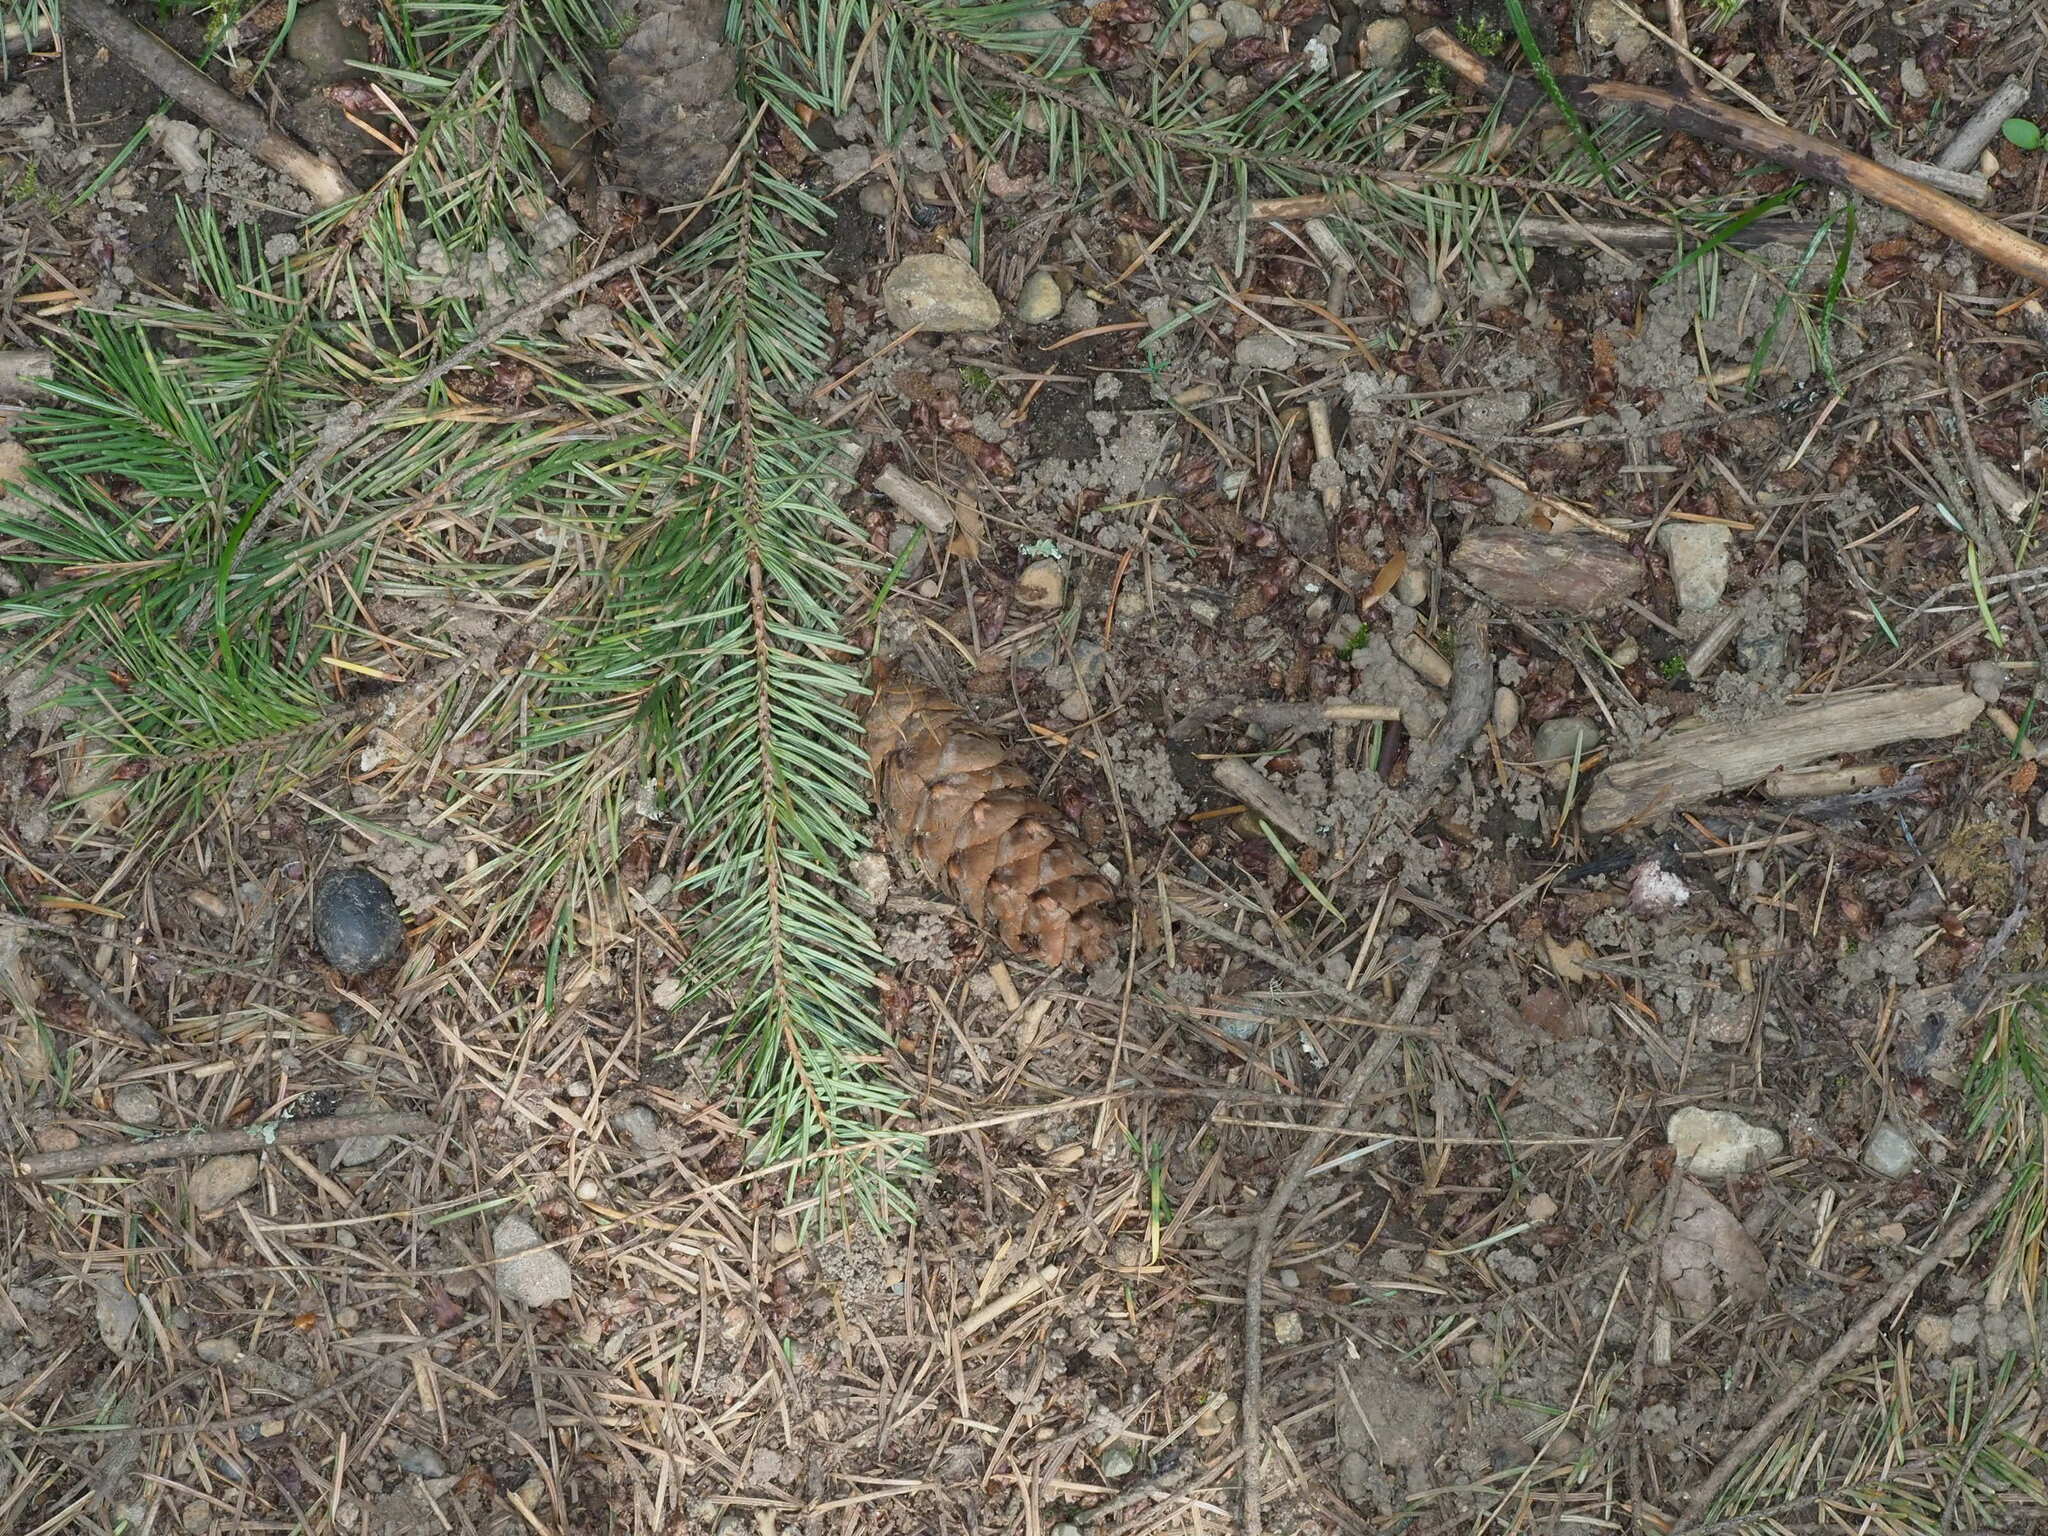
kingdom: Plantae
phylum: Tracheophyta
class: Pinopsida
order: Pinales
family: Pinaceae
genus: Pseudotsuga
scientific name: Pseudotsuga menziesii
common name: Douglas fir
